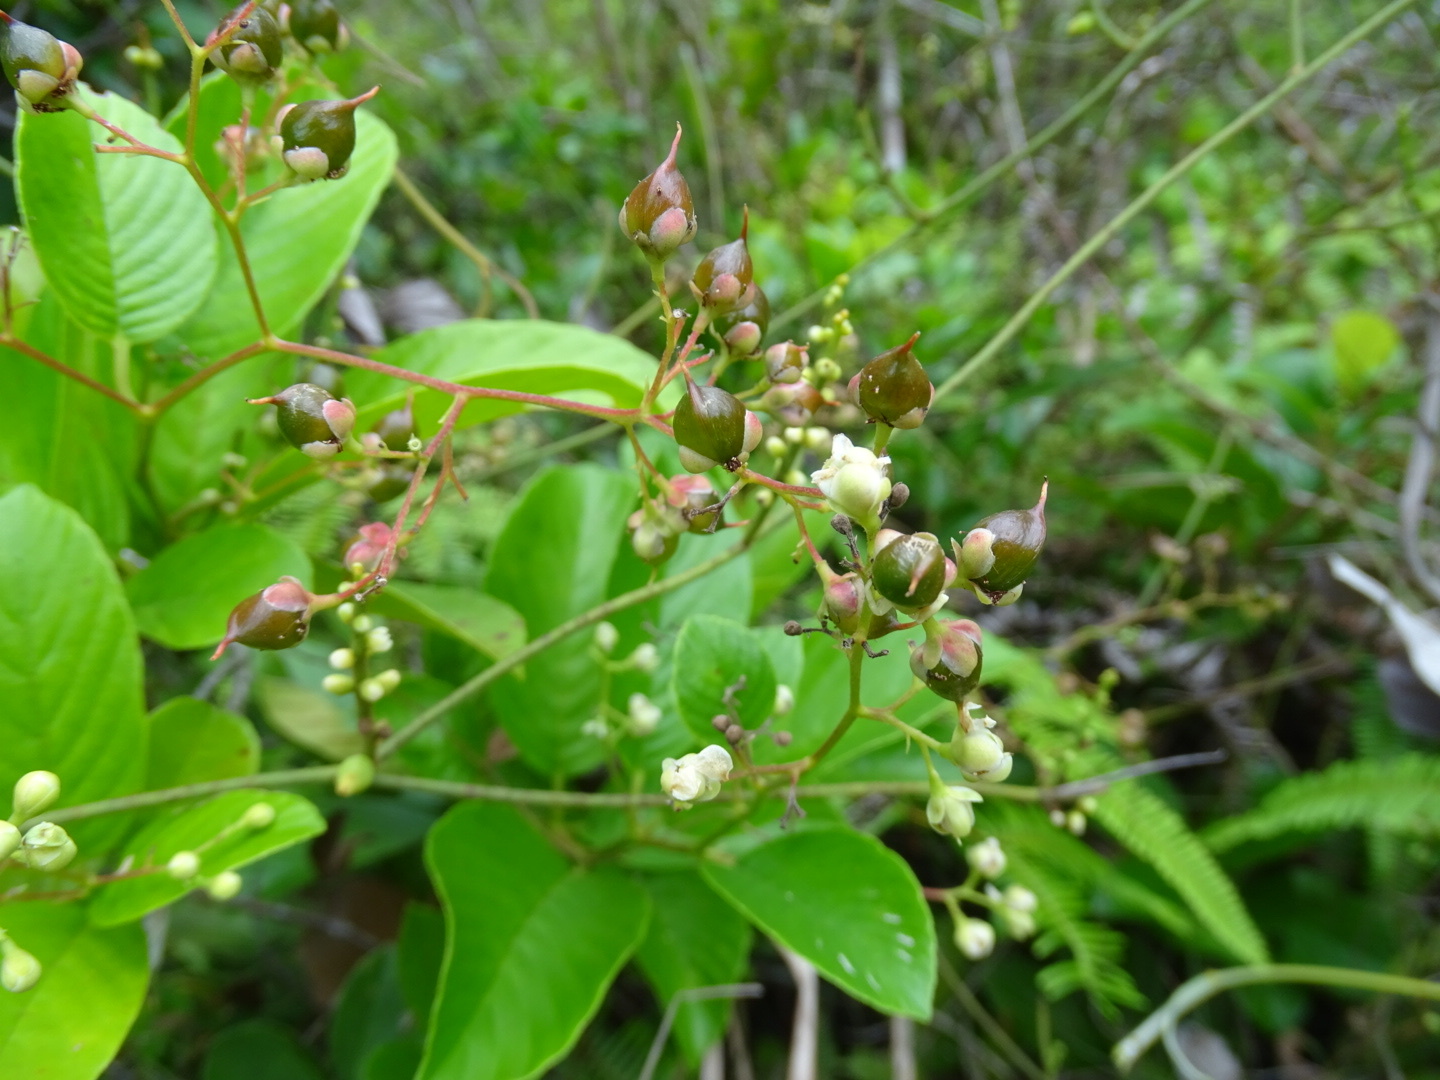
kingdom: Plantae
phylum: Tracheophyta
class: Magnoliopsida
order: Dilleniales
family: Dilleniaceae
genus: Tetracera
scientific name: Tetracera sarmentosa
